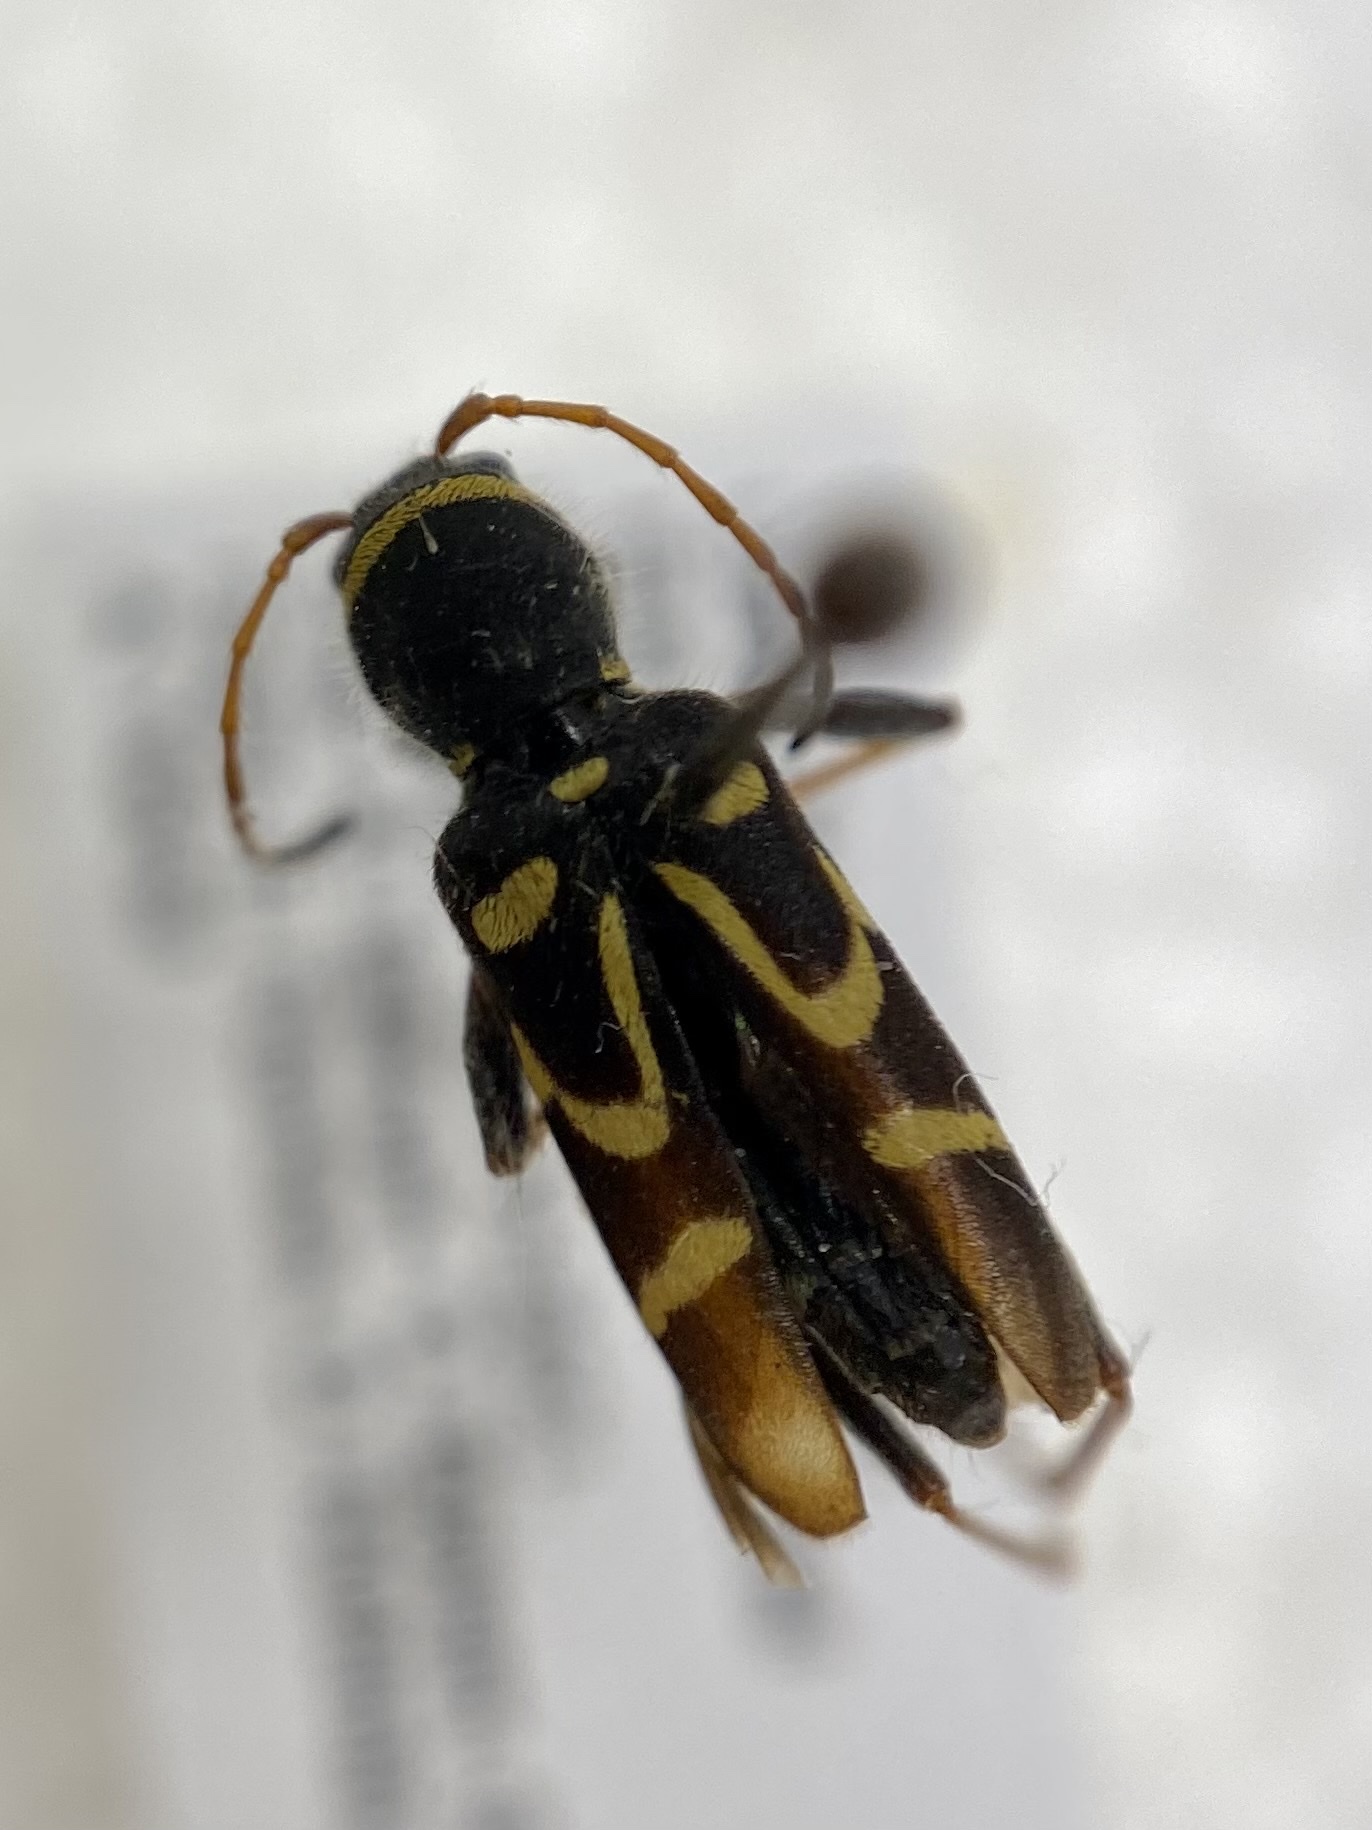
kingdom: Animalia
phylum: Arthropoda
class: Insecta
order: Coleoptera
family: Cerambycidae
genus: Clytus
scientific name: Clytus ruricola
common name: Round-necked longhorn beetle
